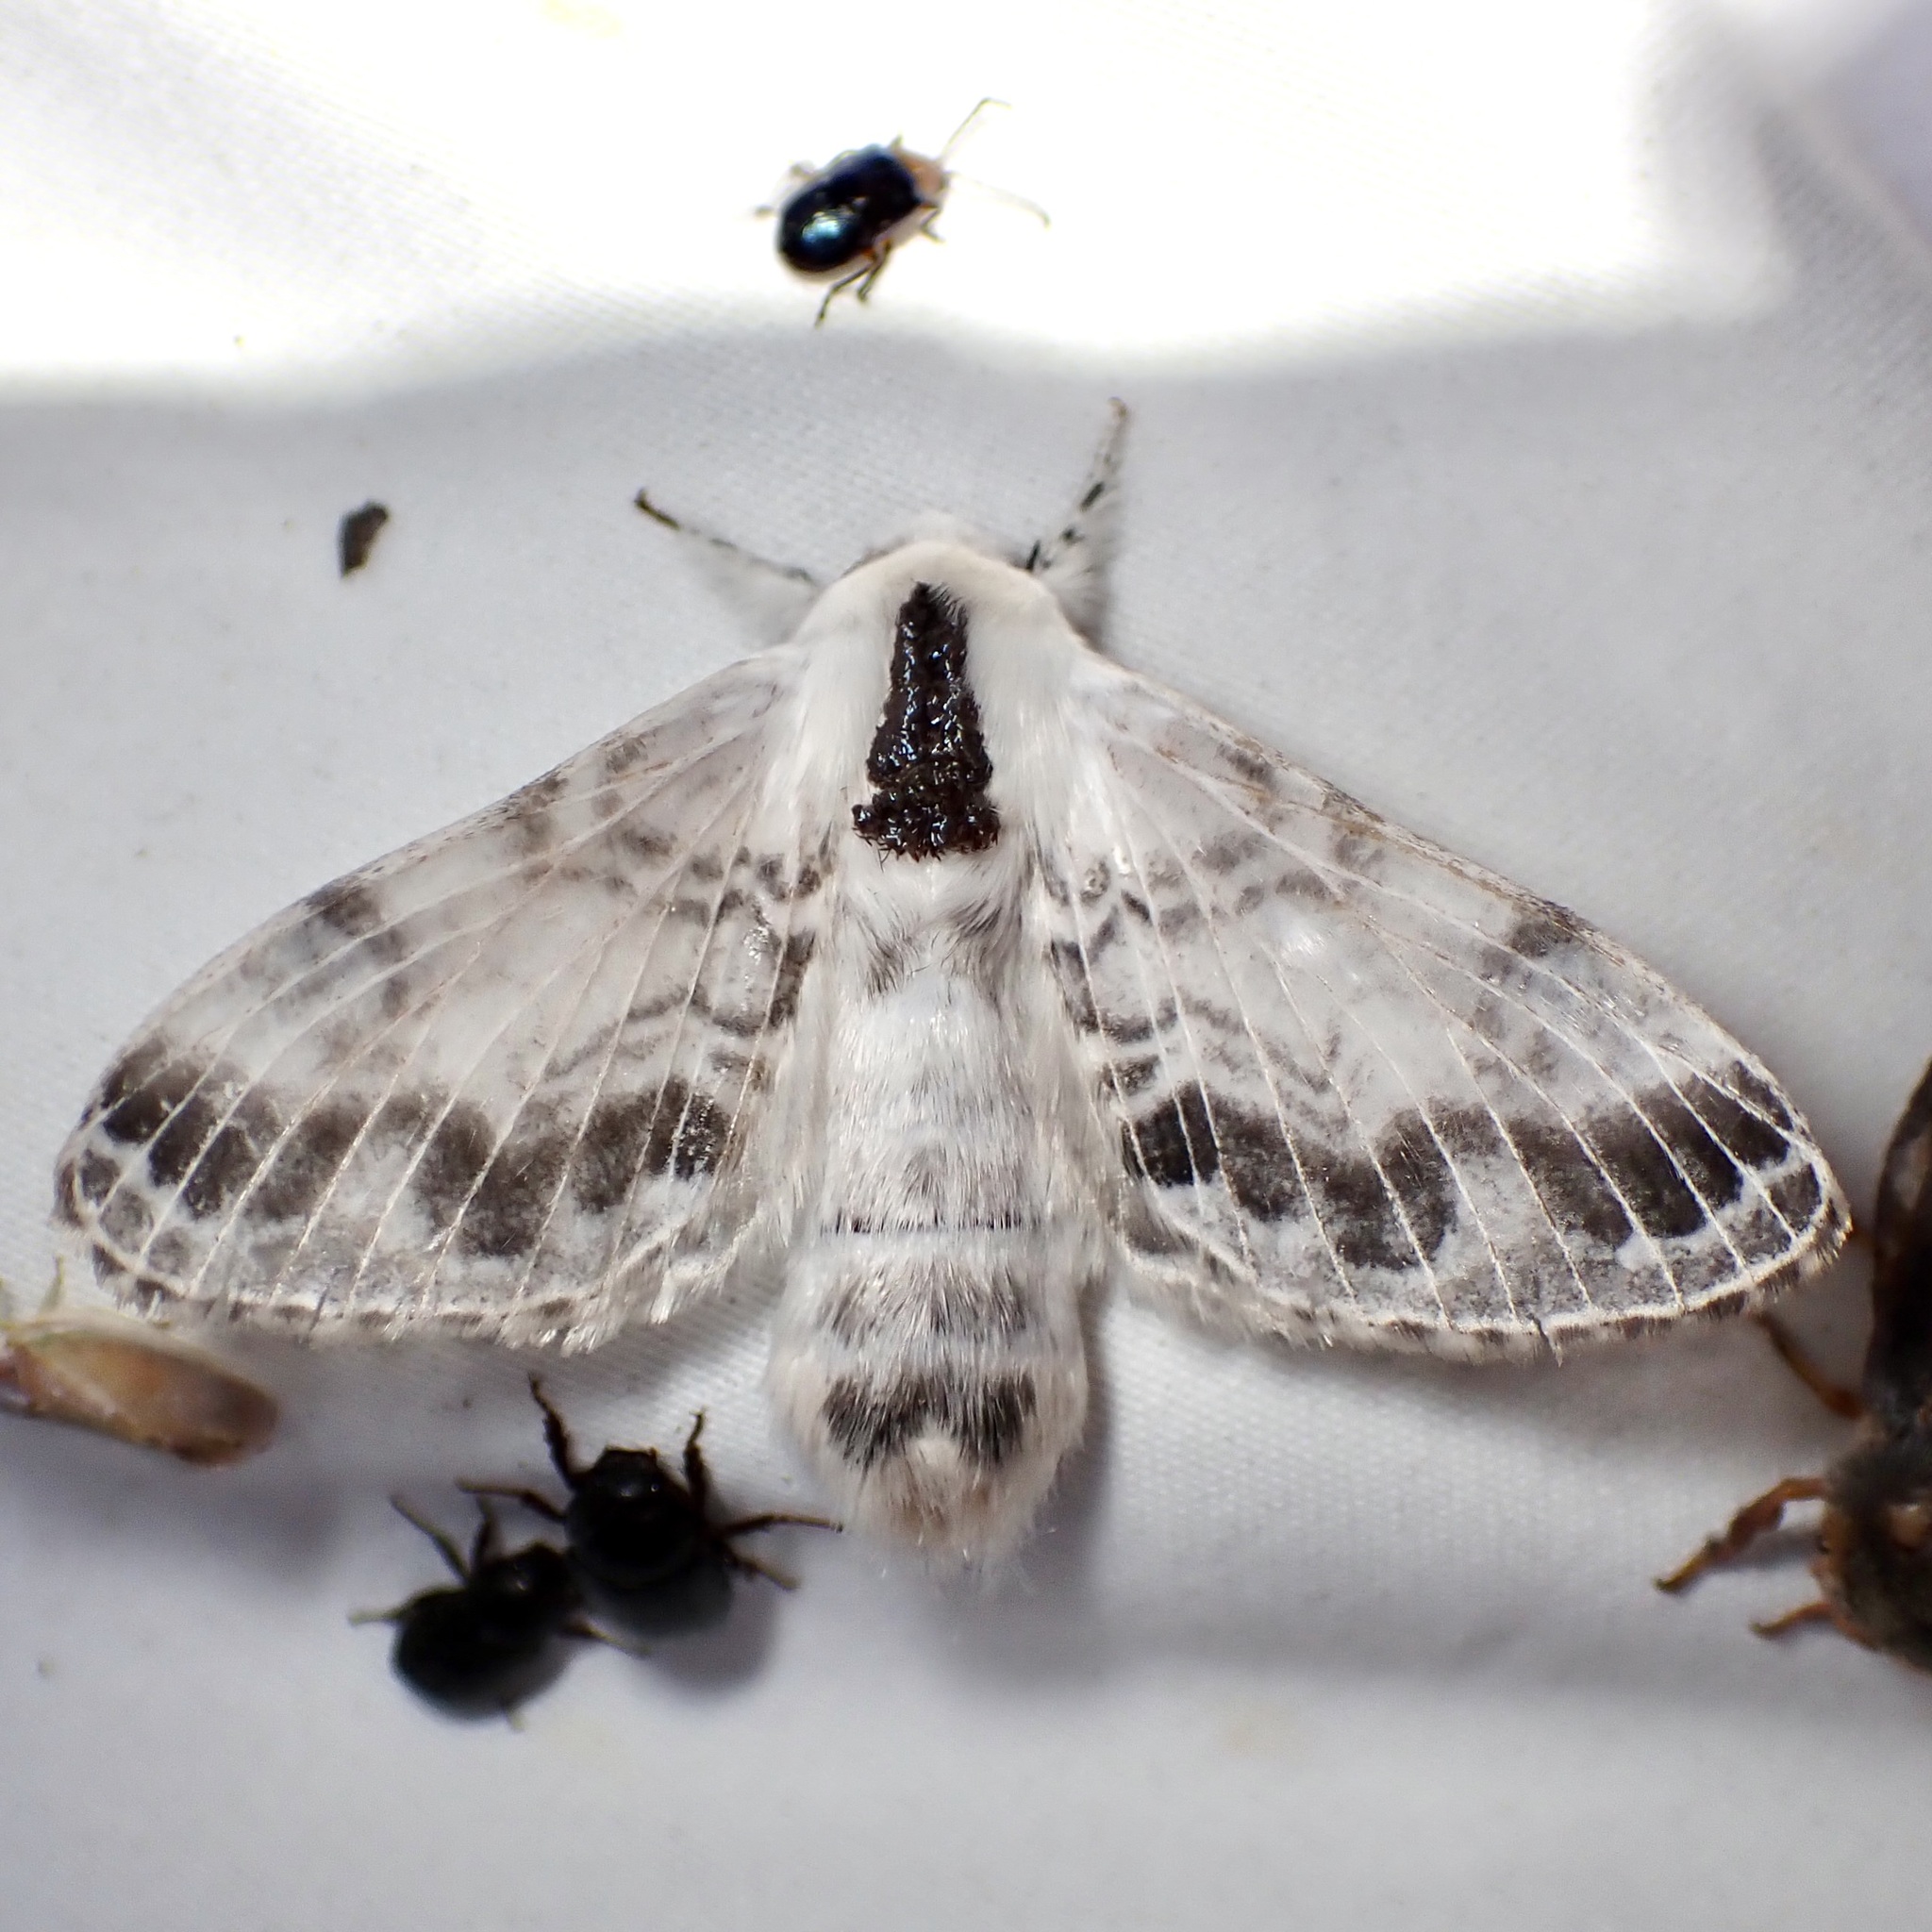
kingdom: Animalia
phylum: Arthropoda
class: Insecta
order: Lepidoptera
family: Lasiocampidae
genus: Tolype
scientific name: Tolype austella
